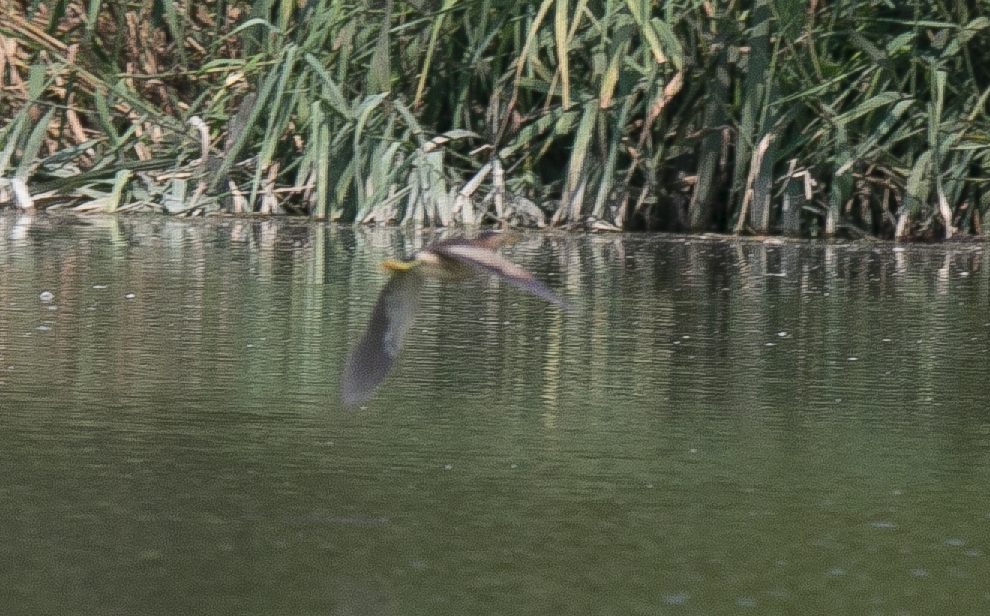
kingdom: Animalia
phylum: Chordata
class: Aves
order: Pelecaniformes
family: Ardeidae
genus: Ixobrychus
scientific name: Ixobrychus minutus
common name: Little bittern
